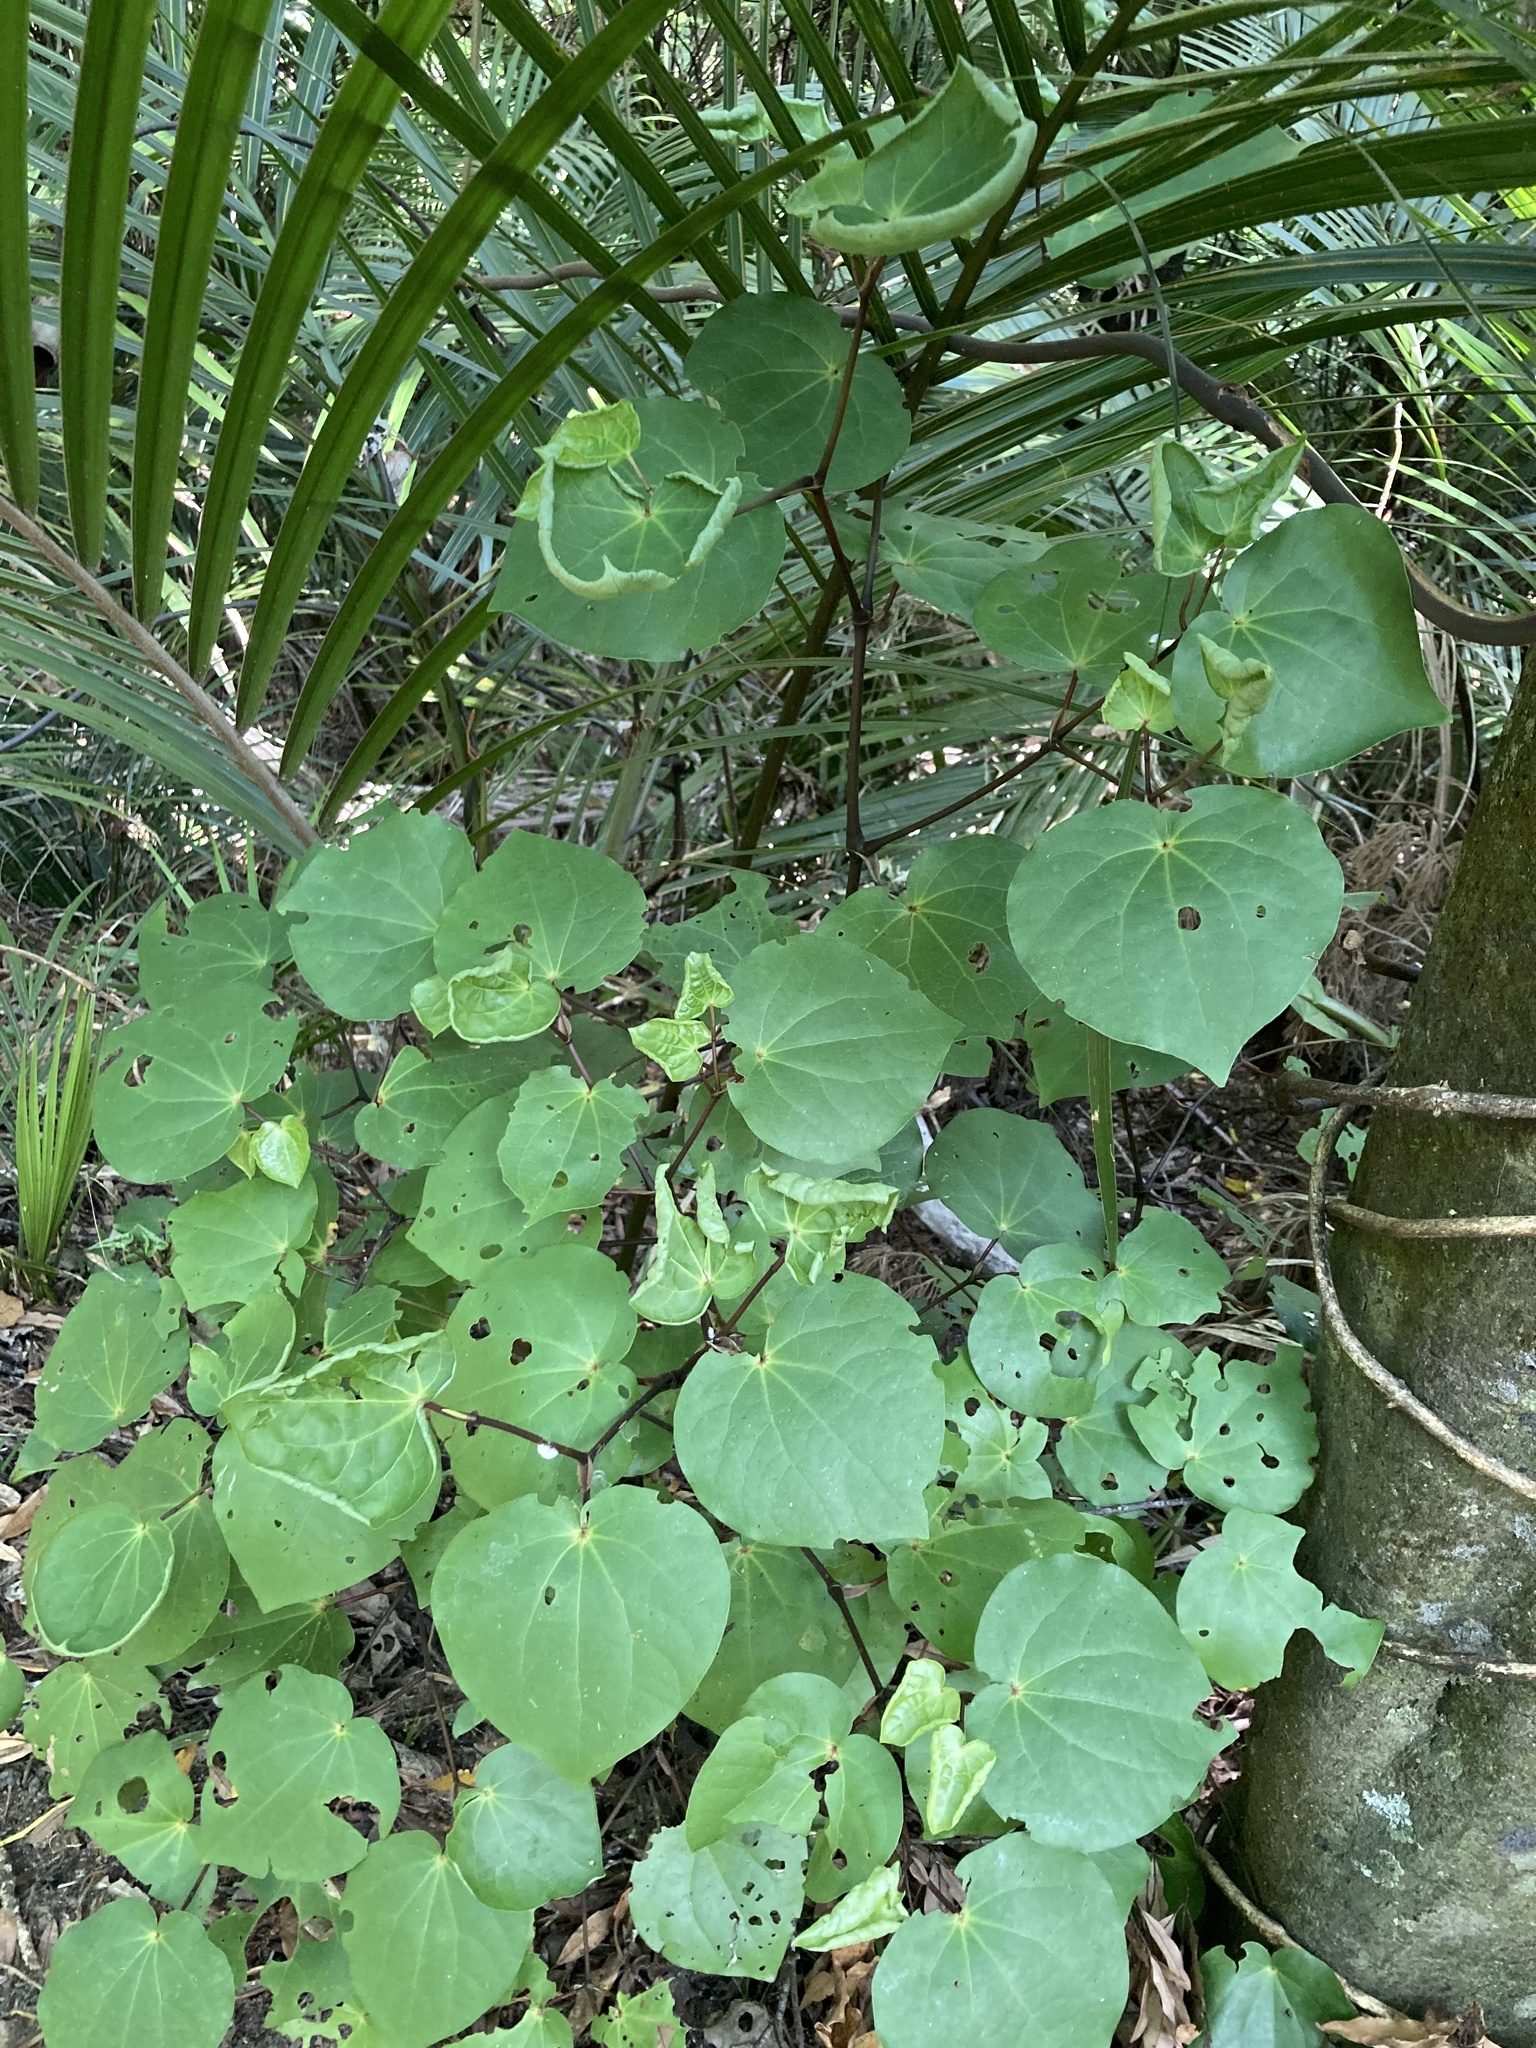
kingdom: Plantae
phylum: Tracheophyta
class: Magnoliopsida
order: Piperales
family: Piperaceae
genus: Macropiper
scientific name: Macropiper excelsum
